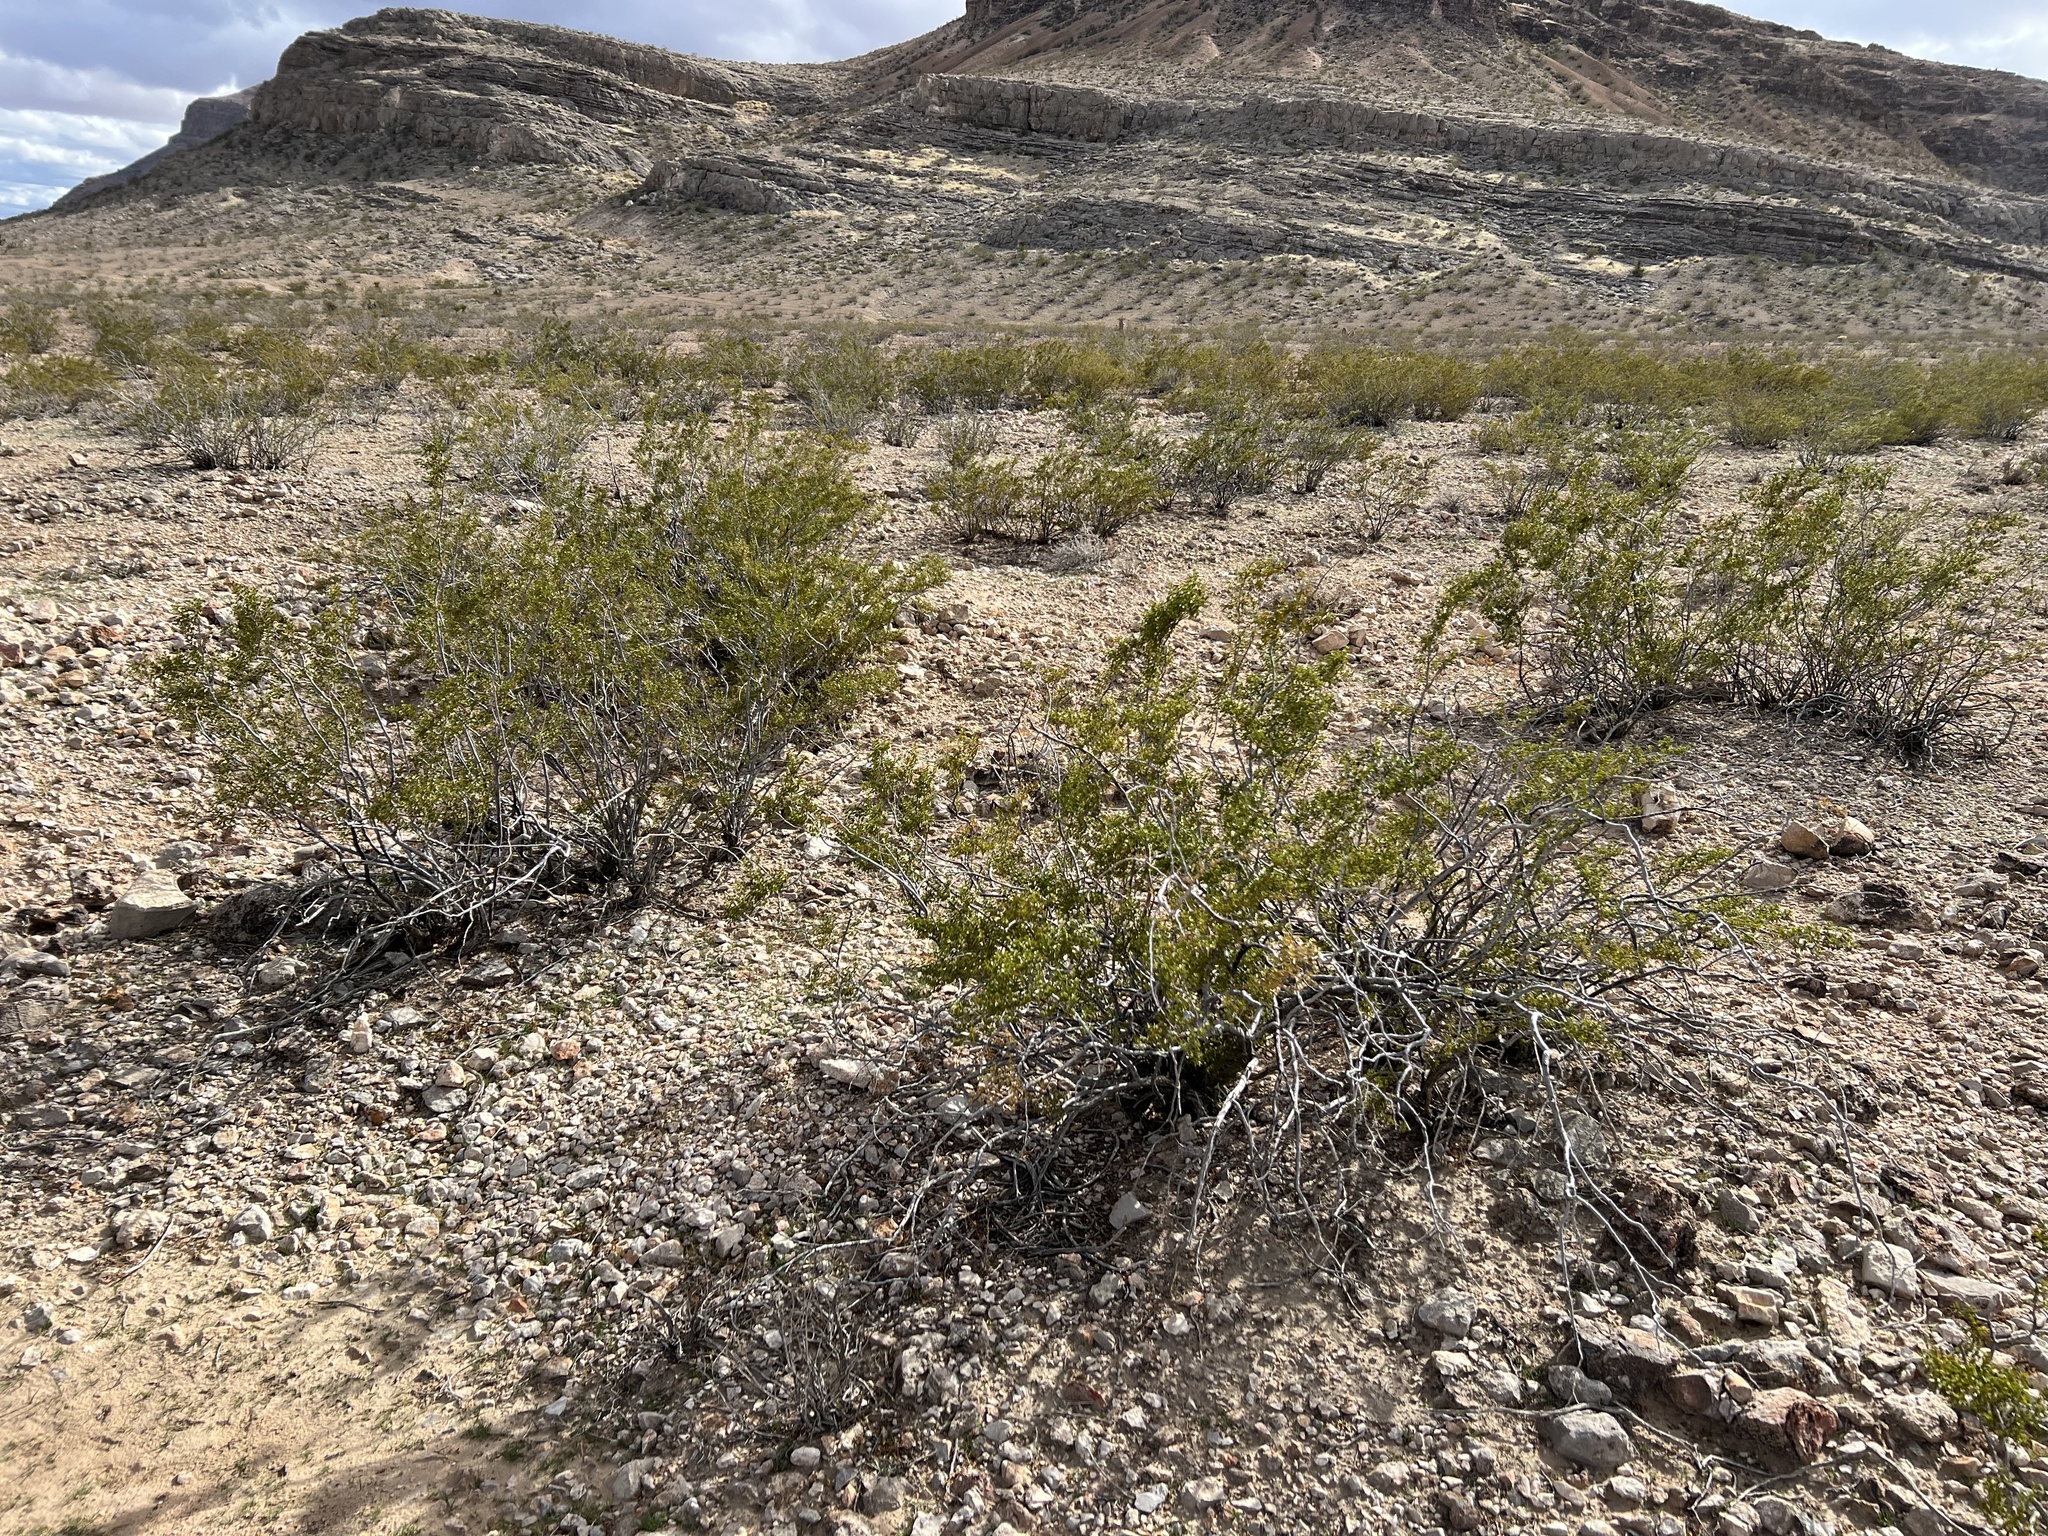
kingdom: Plantae
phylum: Tracheophyta
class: Magnoliopsida
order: Zygophyllales
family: Zygophyllaceae
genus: Larrea
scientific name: Larrea tridentata
